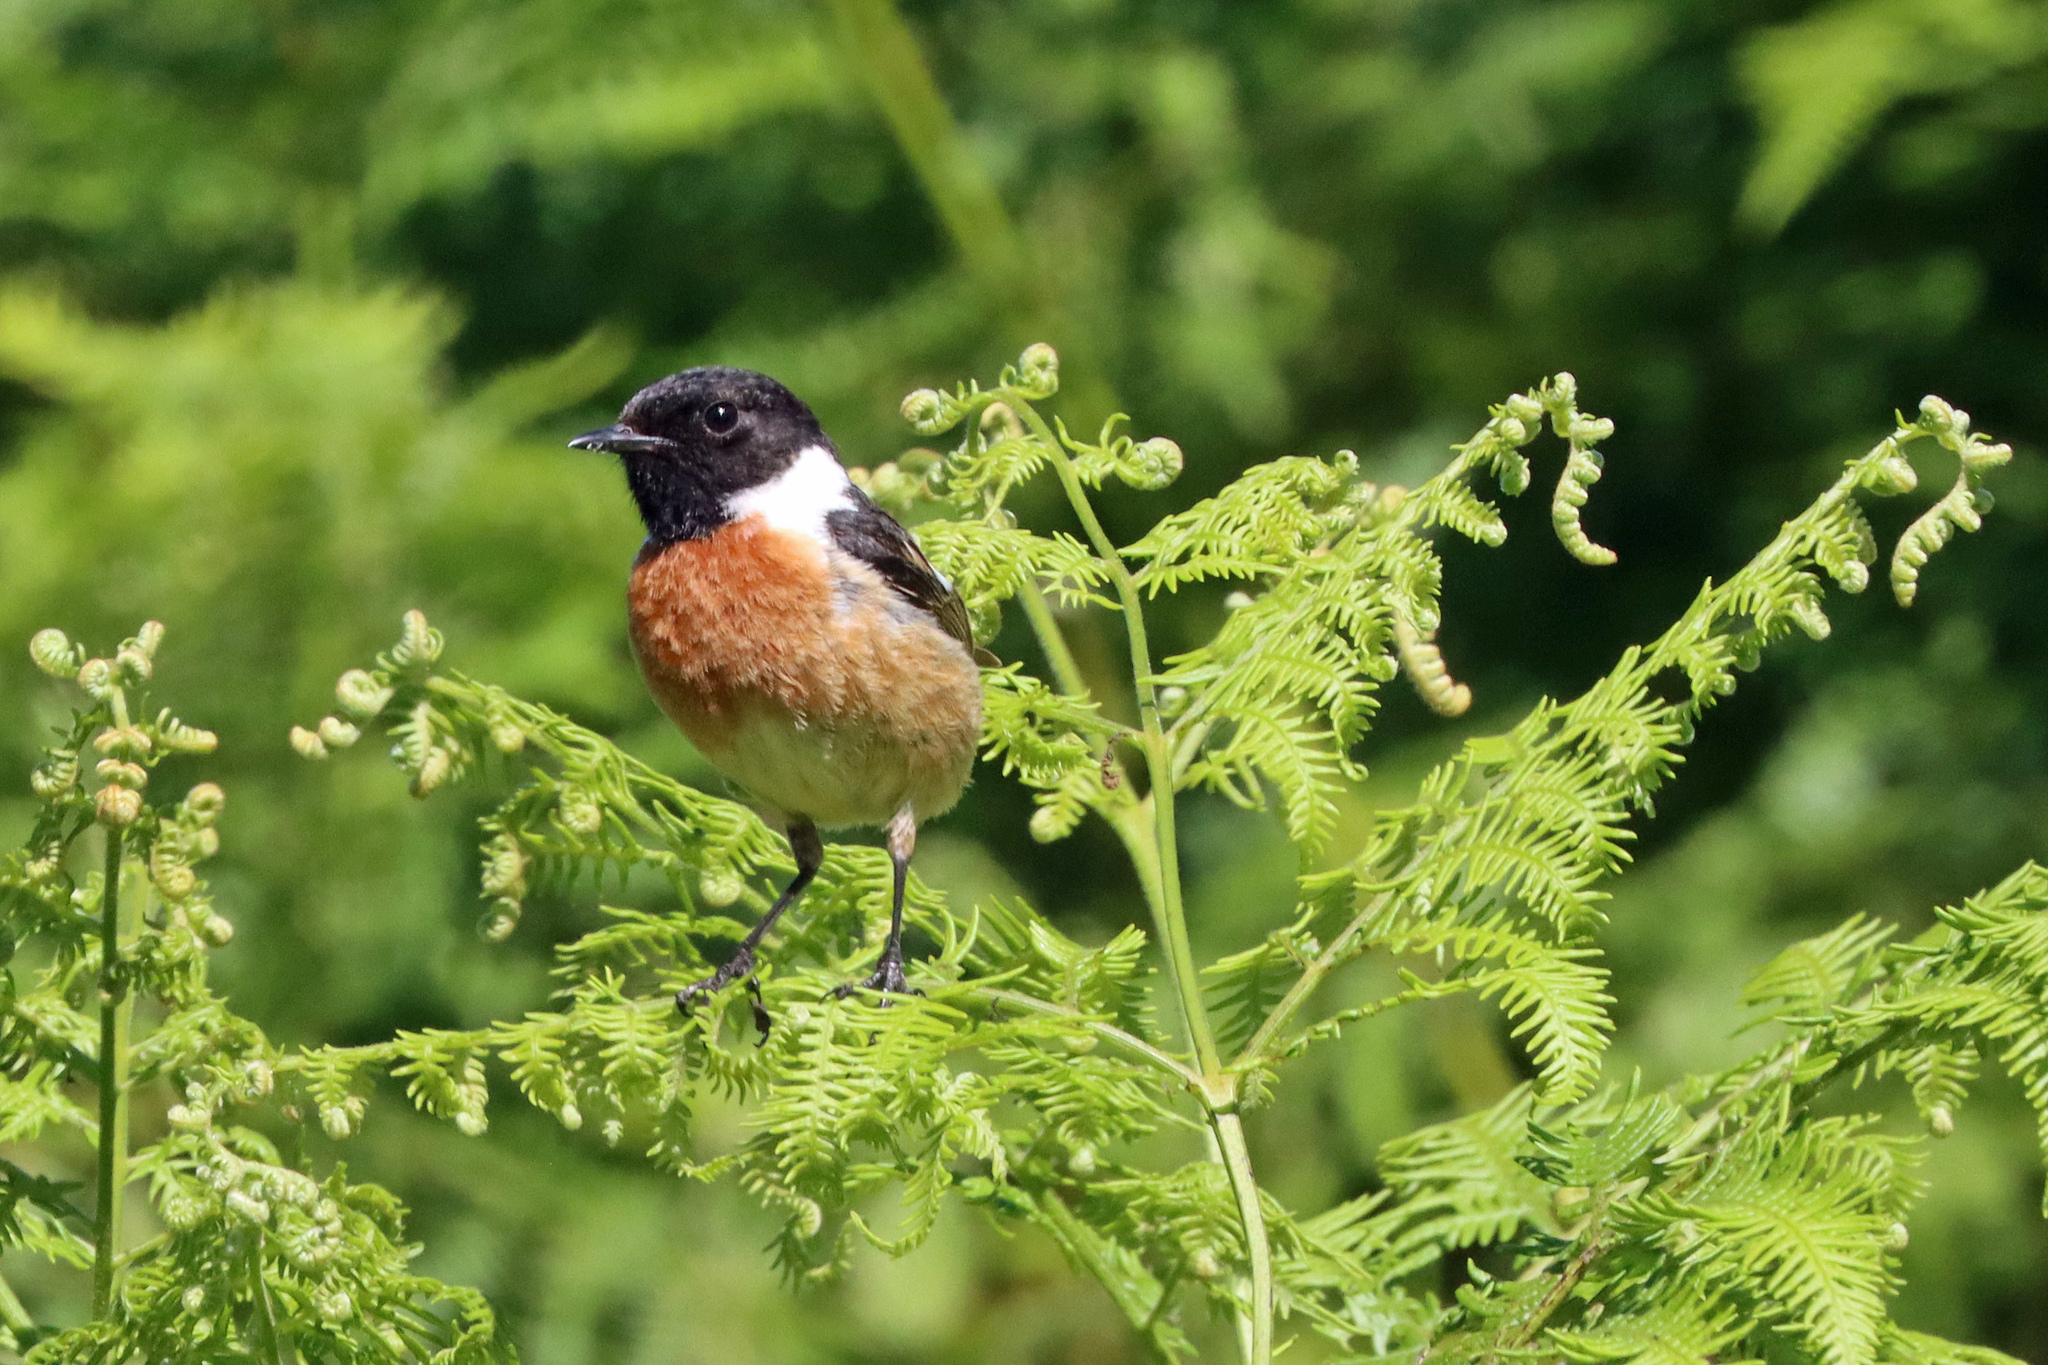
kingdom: Animalia
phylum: Chordata
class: Aves
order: Passeriformes
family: Muscicapidae
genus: Saxicola
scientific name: Saxicola rubicola
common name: European stonechat
